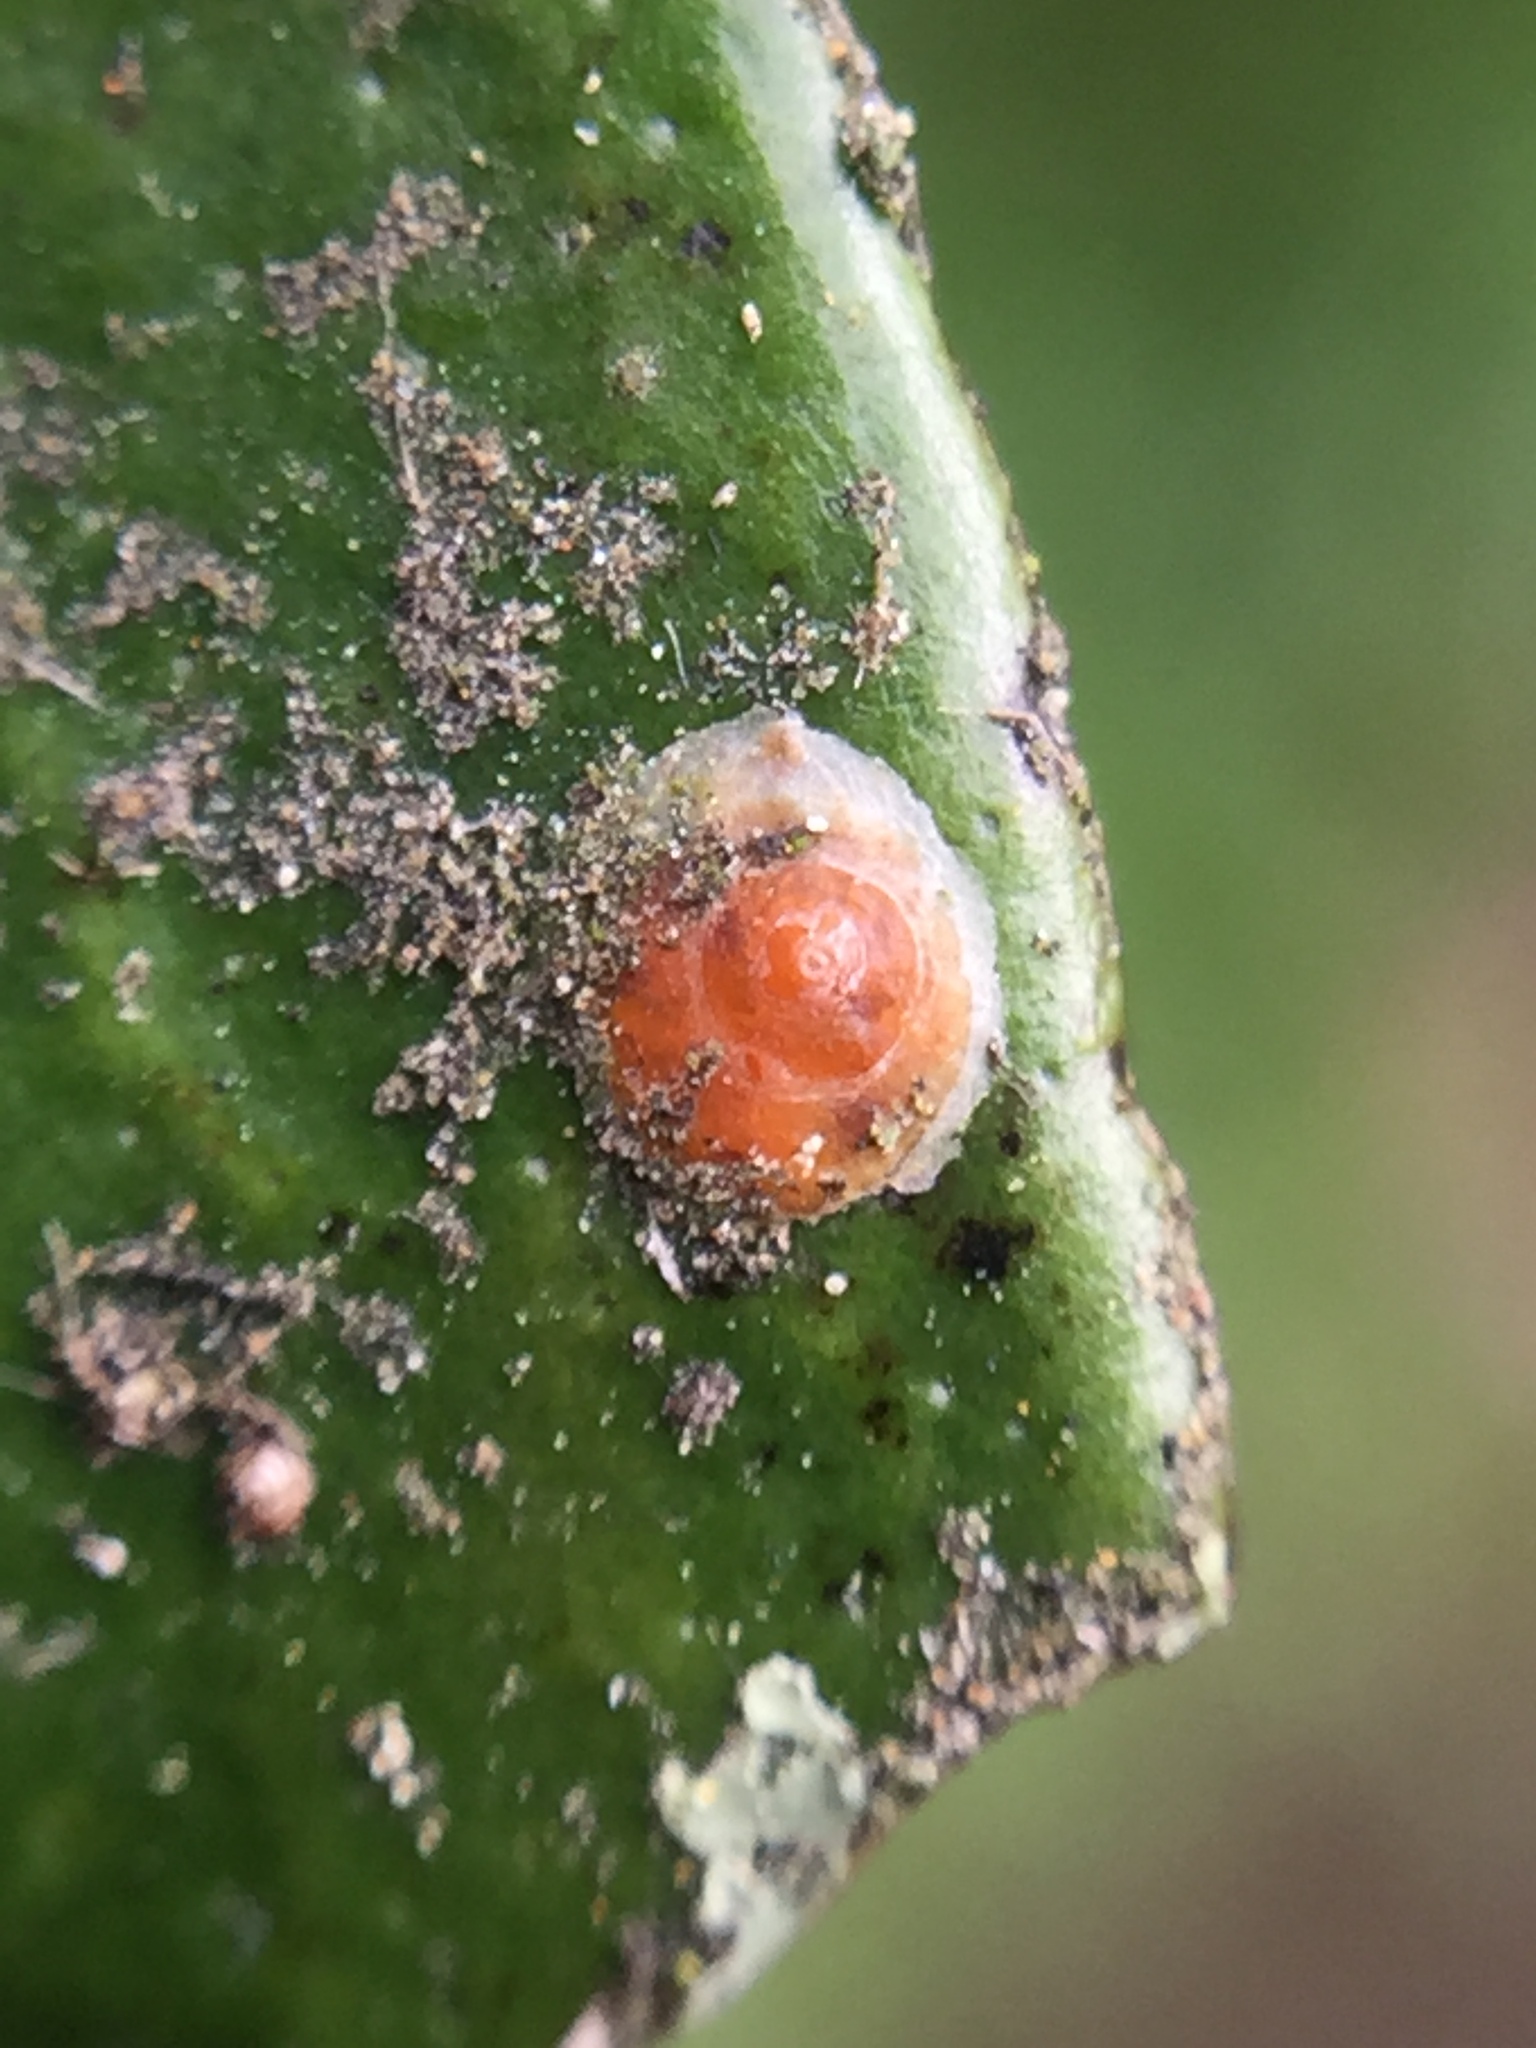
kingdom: Animalia
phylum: Arthropoda
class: Insecta
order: Hemiptera
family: Diaspididae
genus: Aonidiella
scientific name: Aonidiella aurantii
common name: California red scale
